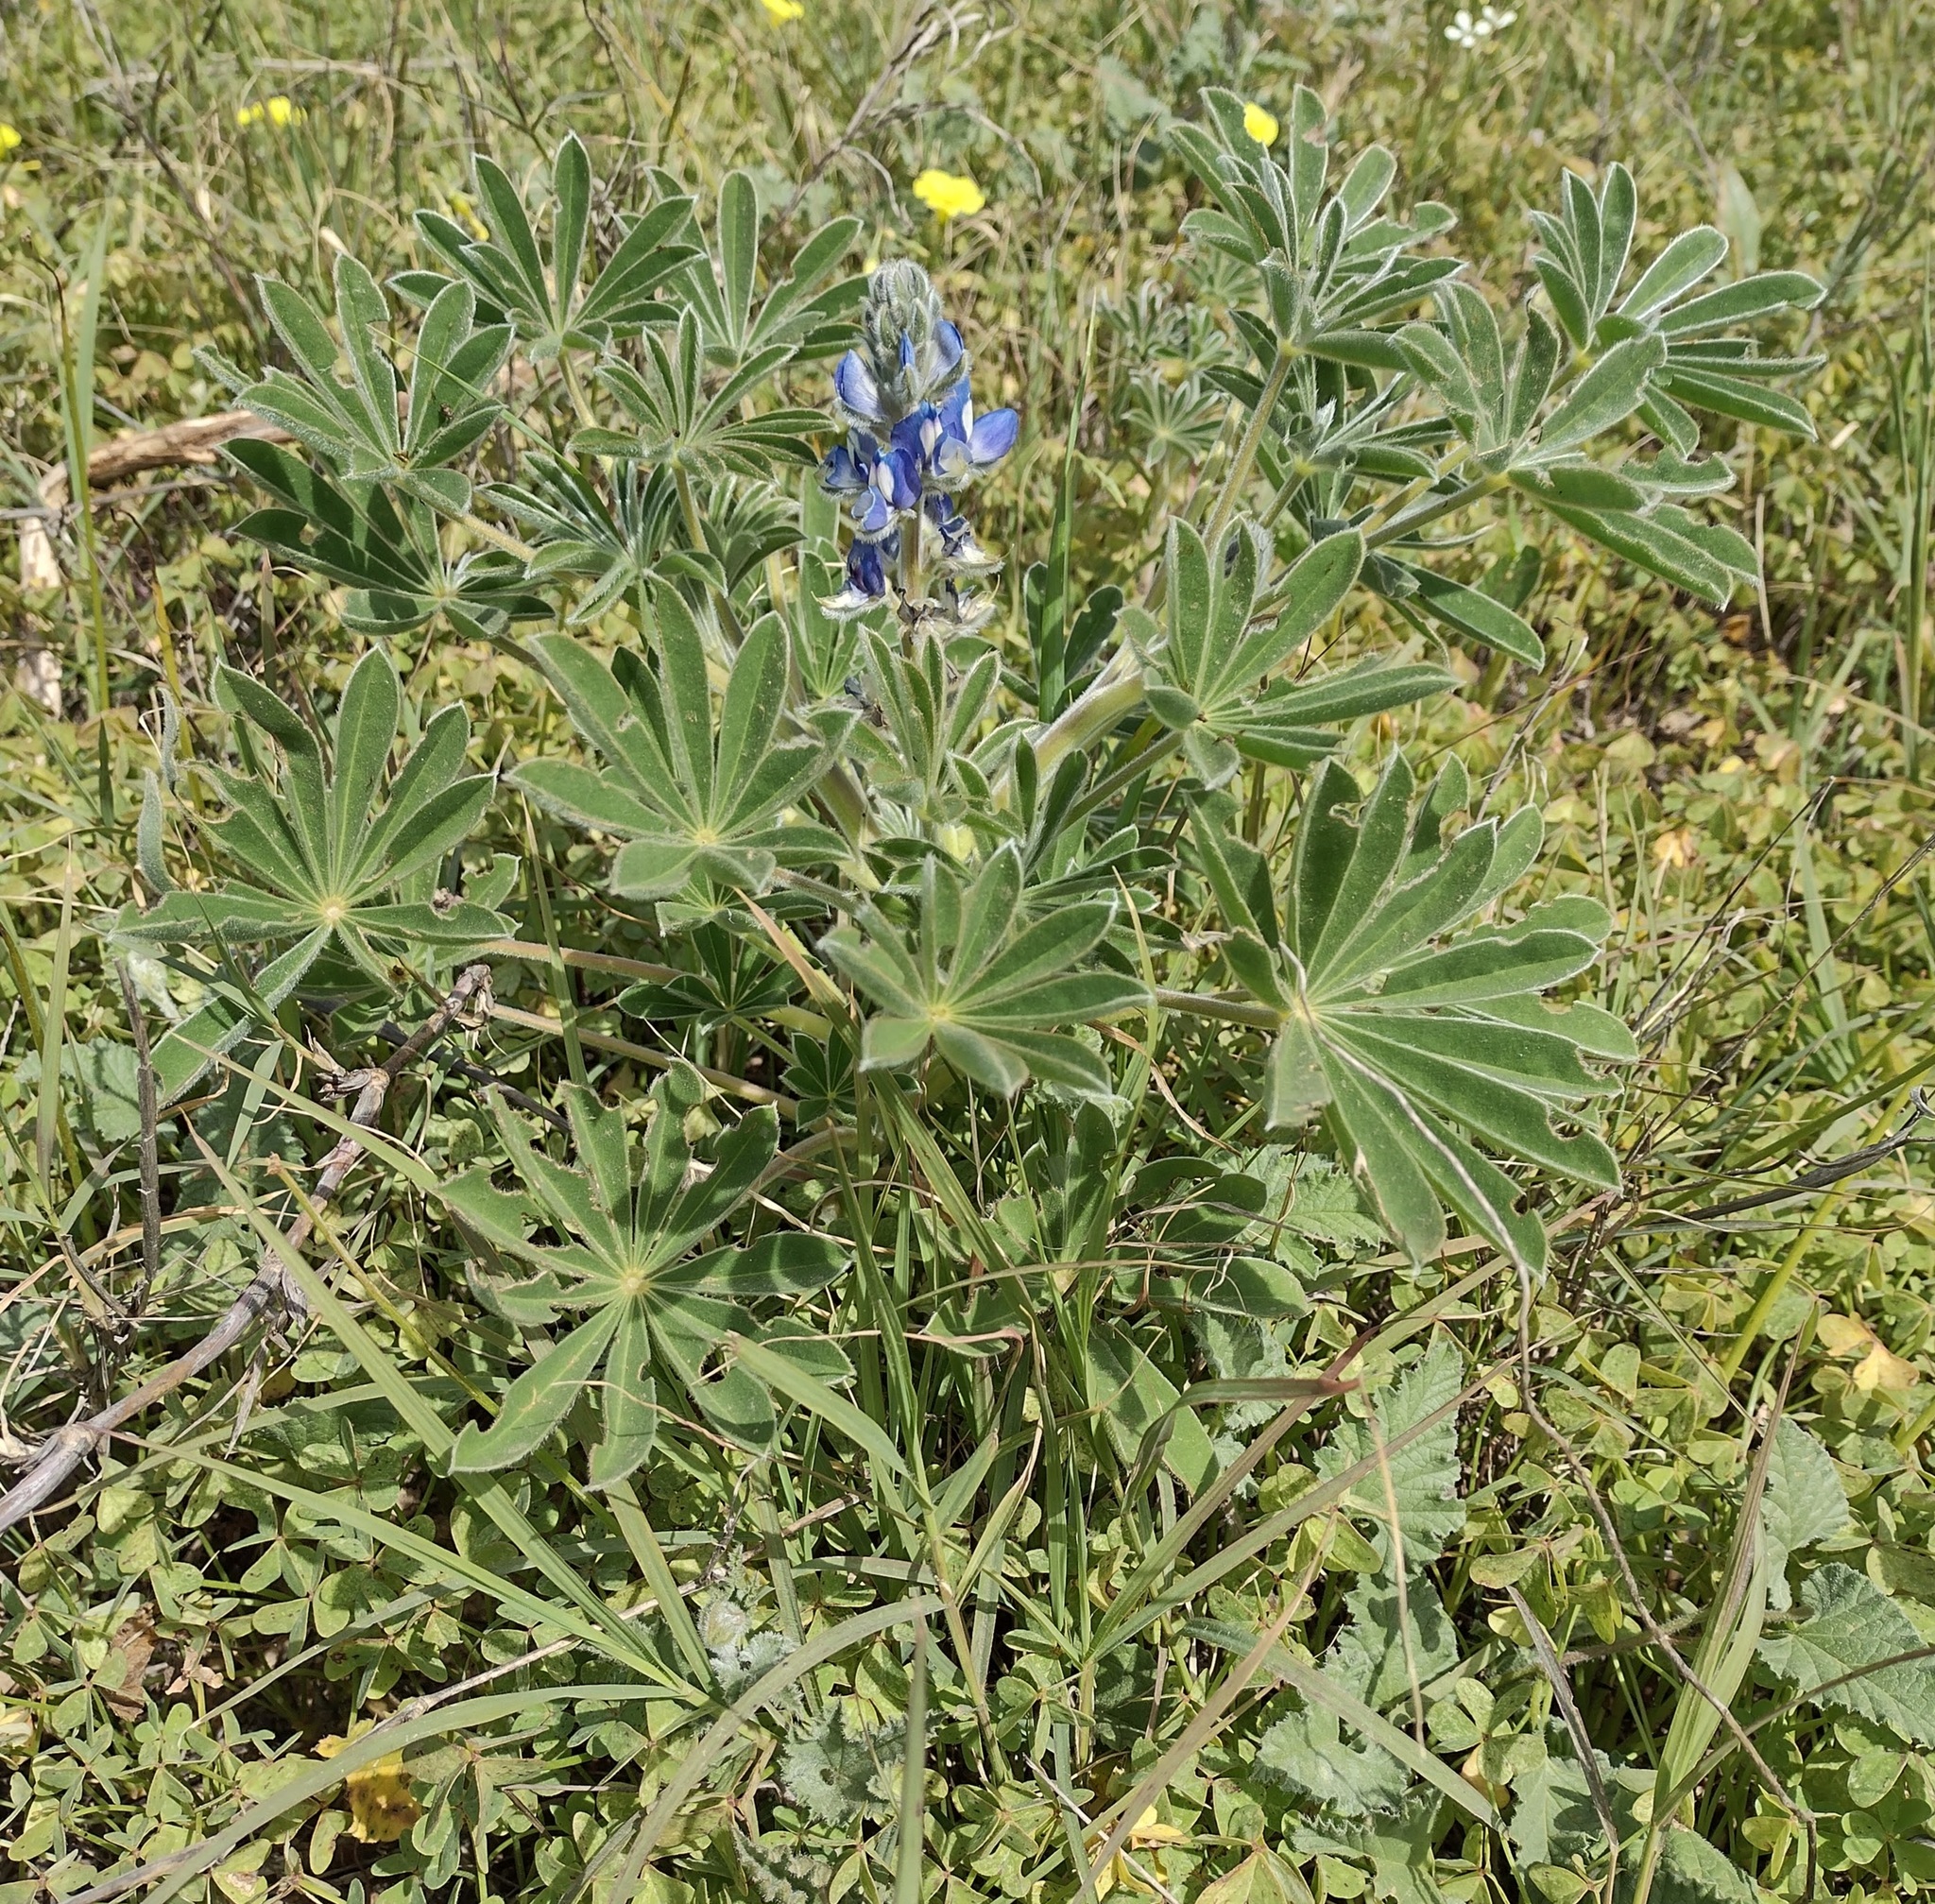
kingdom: Plantae
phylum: Tracheophyta
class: Magnoliopsida
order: Fabales
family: Fabaceae
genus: Lupinus
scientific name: Lupinus cosentinii
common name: Hairy blue lupin
